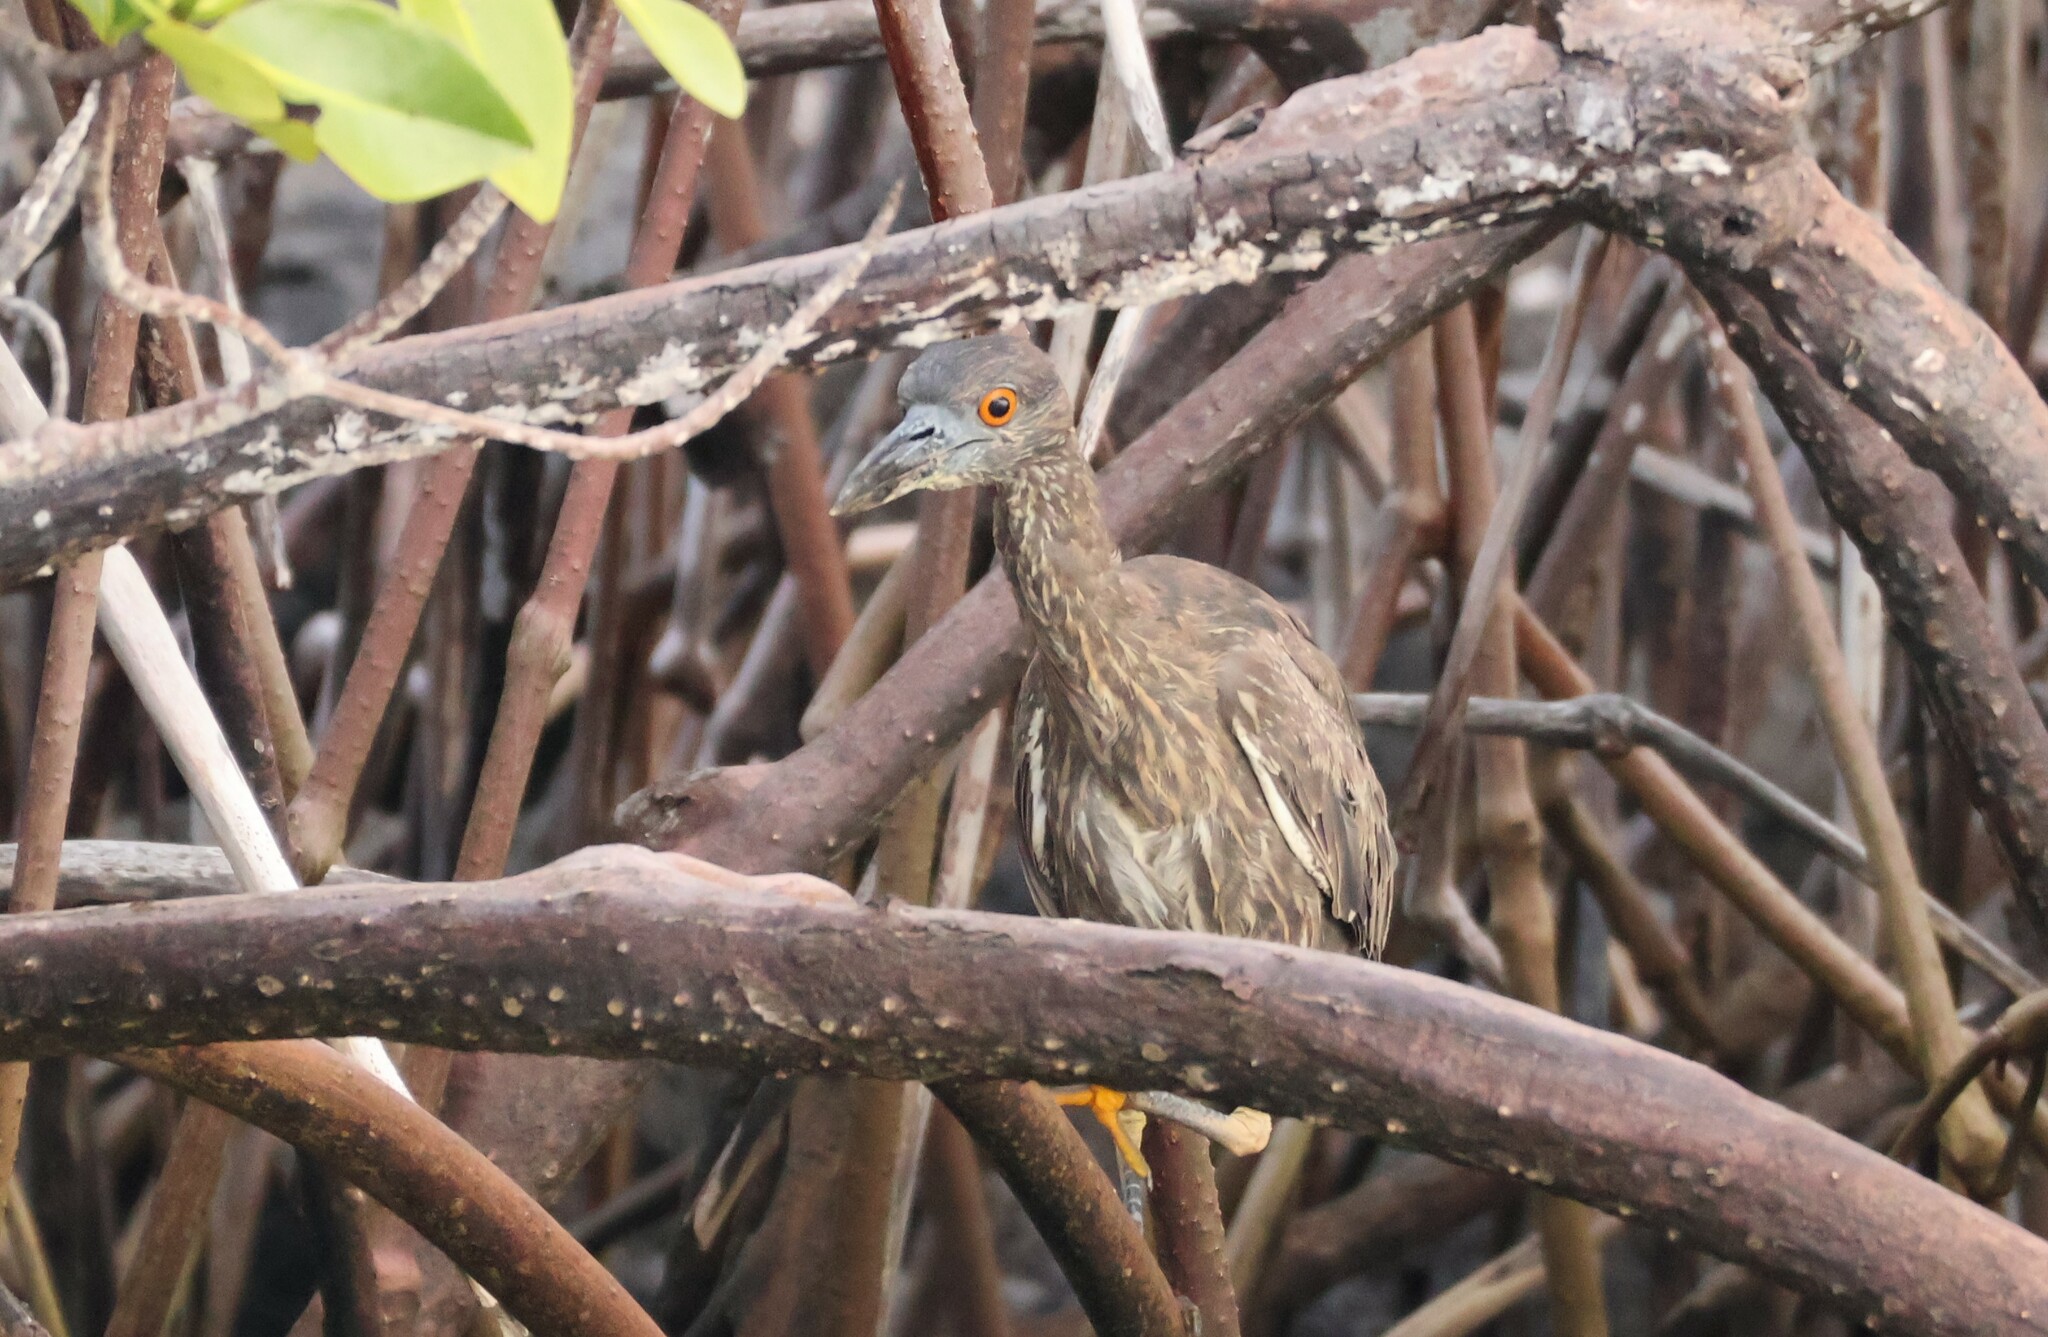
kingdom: Animalia
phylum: Chordata
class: Aves
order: Pelecaniformes
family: Ardeidae
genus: Nyctanassa
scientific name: Nyctanassa violacea
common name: Yellow-crowned night heron
